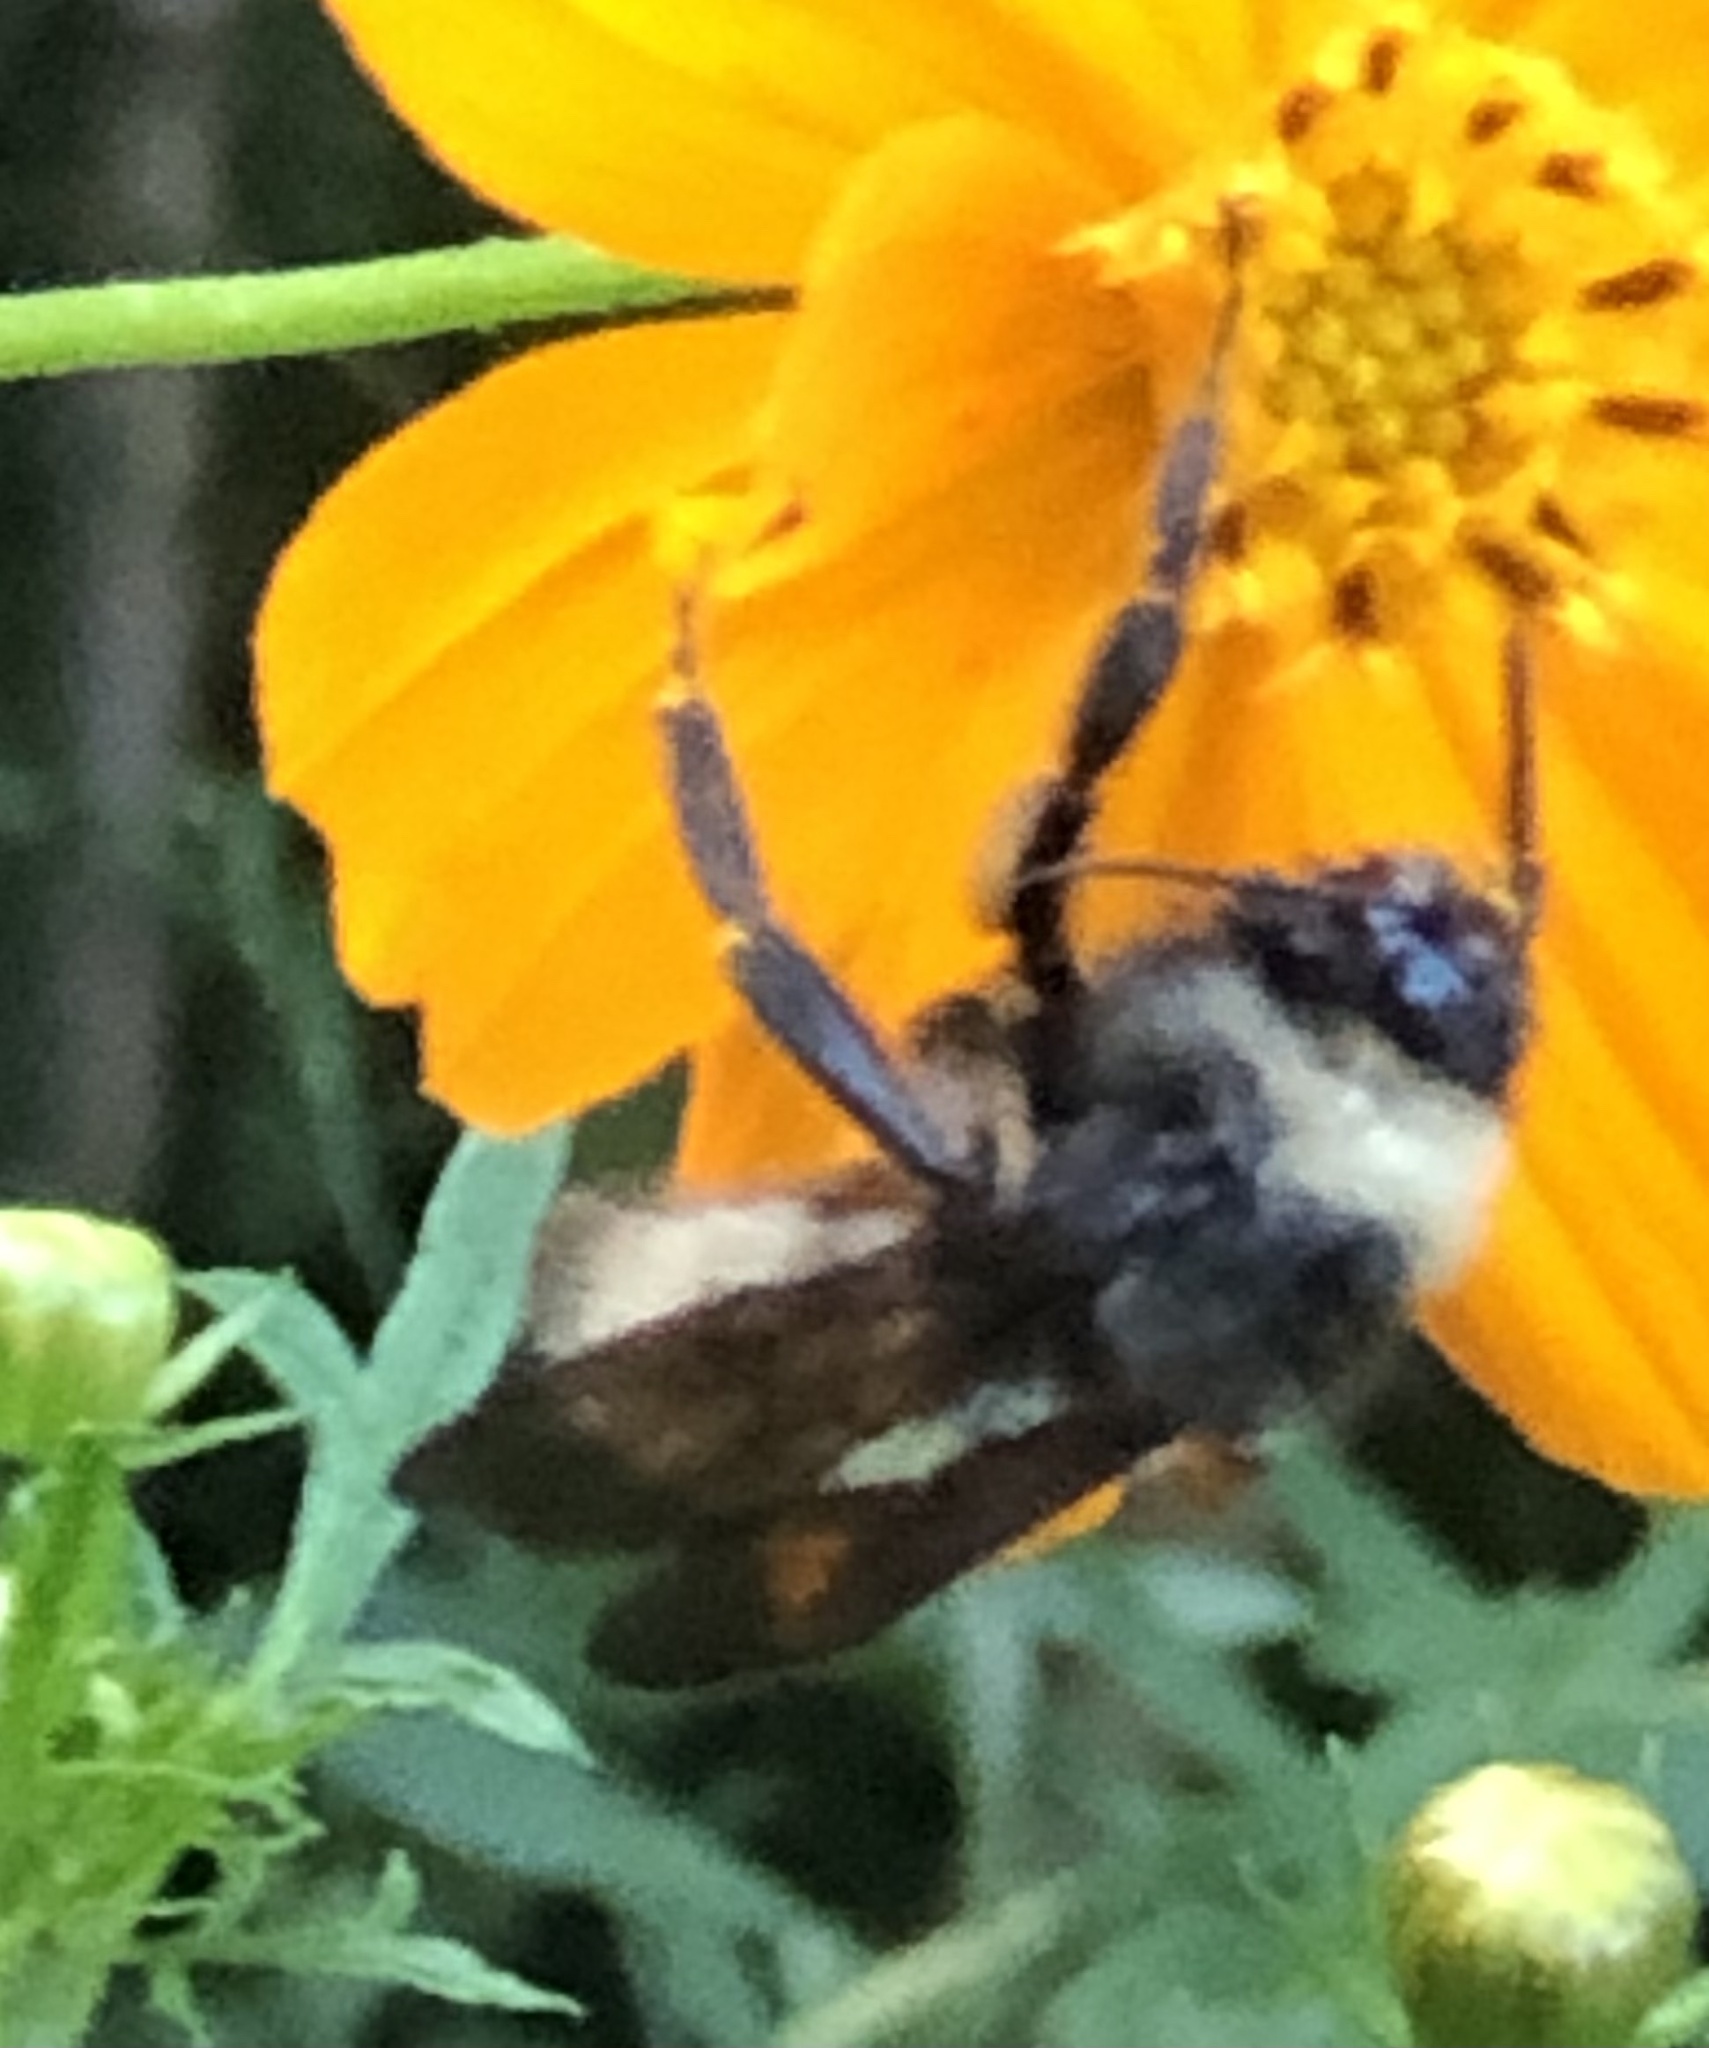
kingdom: Animalia
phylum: Arthropoda
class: Insecta
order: Hymenoptera
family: Apidae
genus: Bombus
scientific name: Bombus pensylvanicus
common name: Bumble bee
